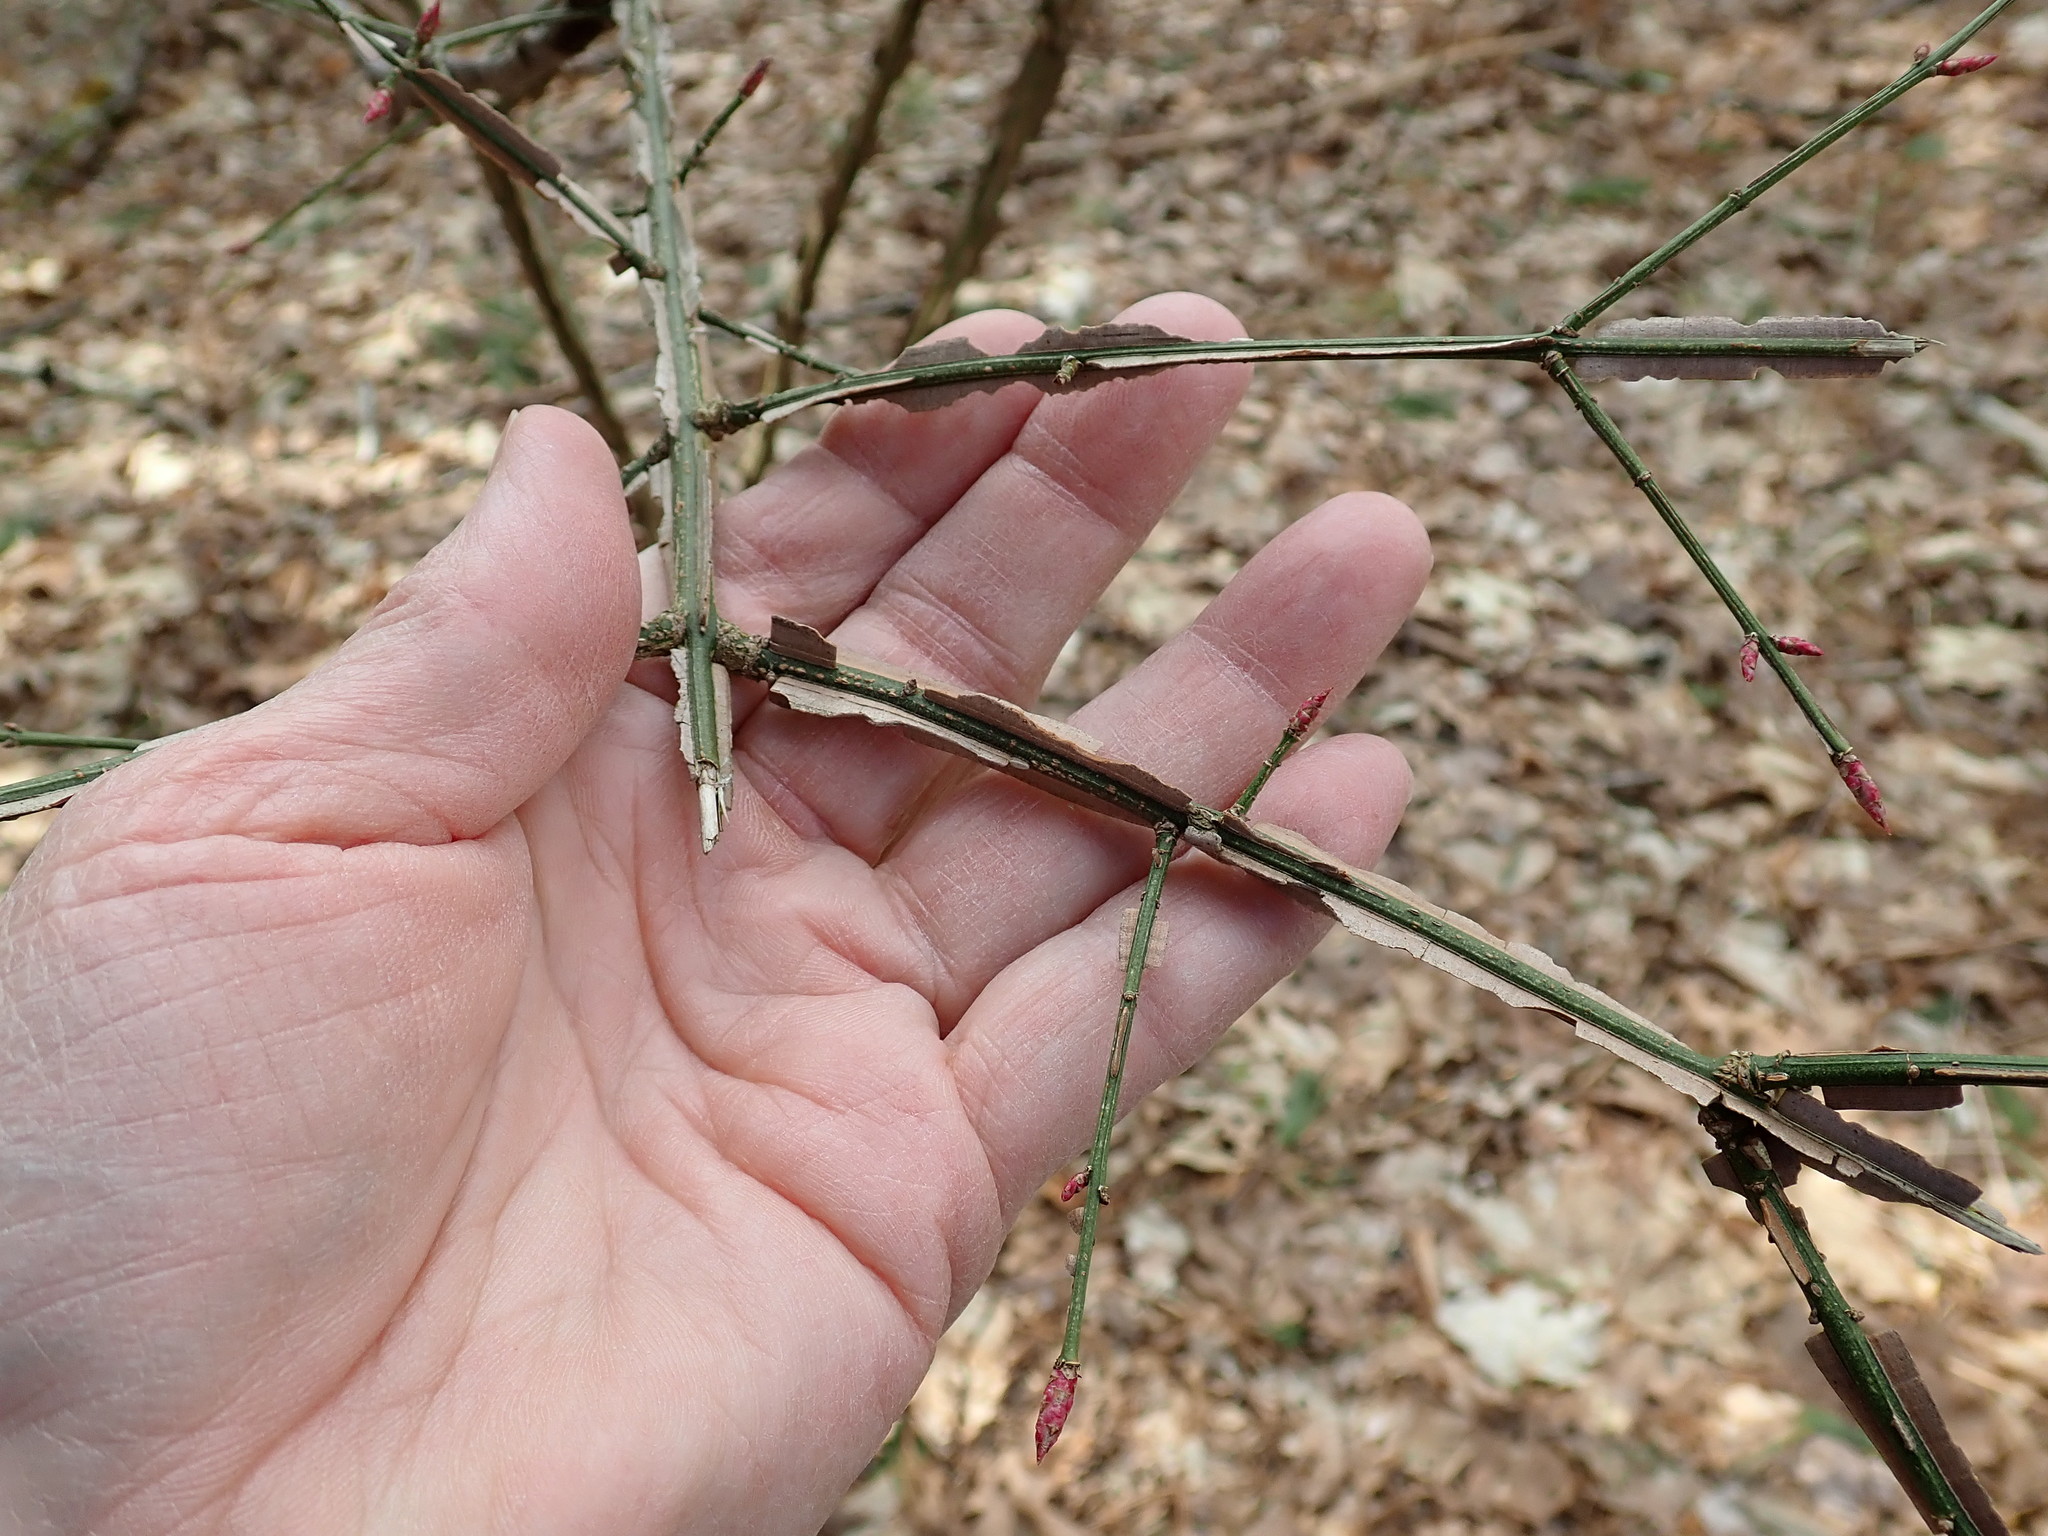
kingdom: Plantae
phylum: Tracheophyta
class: Magnoliopsida
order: Celastrales
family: Celastraceae
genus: Euonymus
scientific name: Euonymus alatus
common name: Winged euonymus
